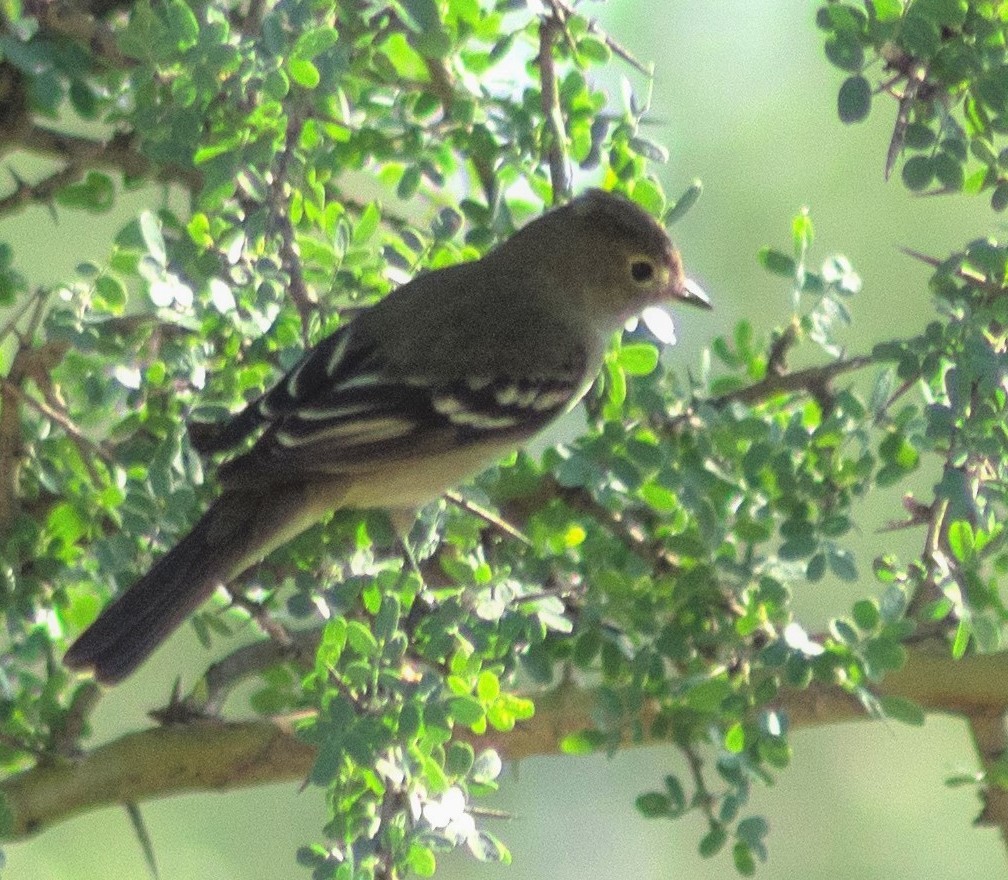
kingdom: Animalia
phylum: Chordata
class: Aves
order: Passeriformes
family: Tyrannidae
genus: Elaenia
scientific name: Elaenia albiceps
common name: White-crested elaenia
